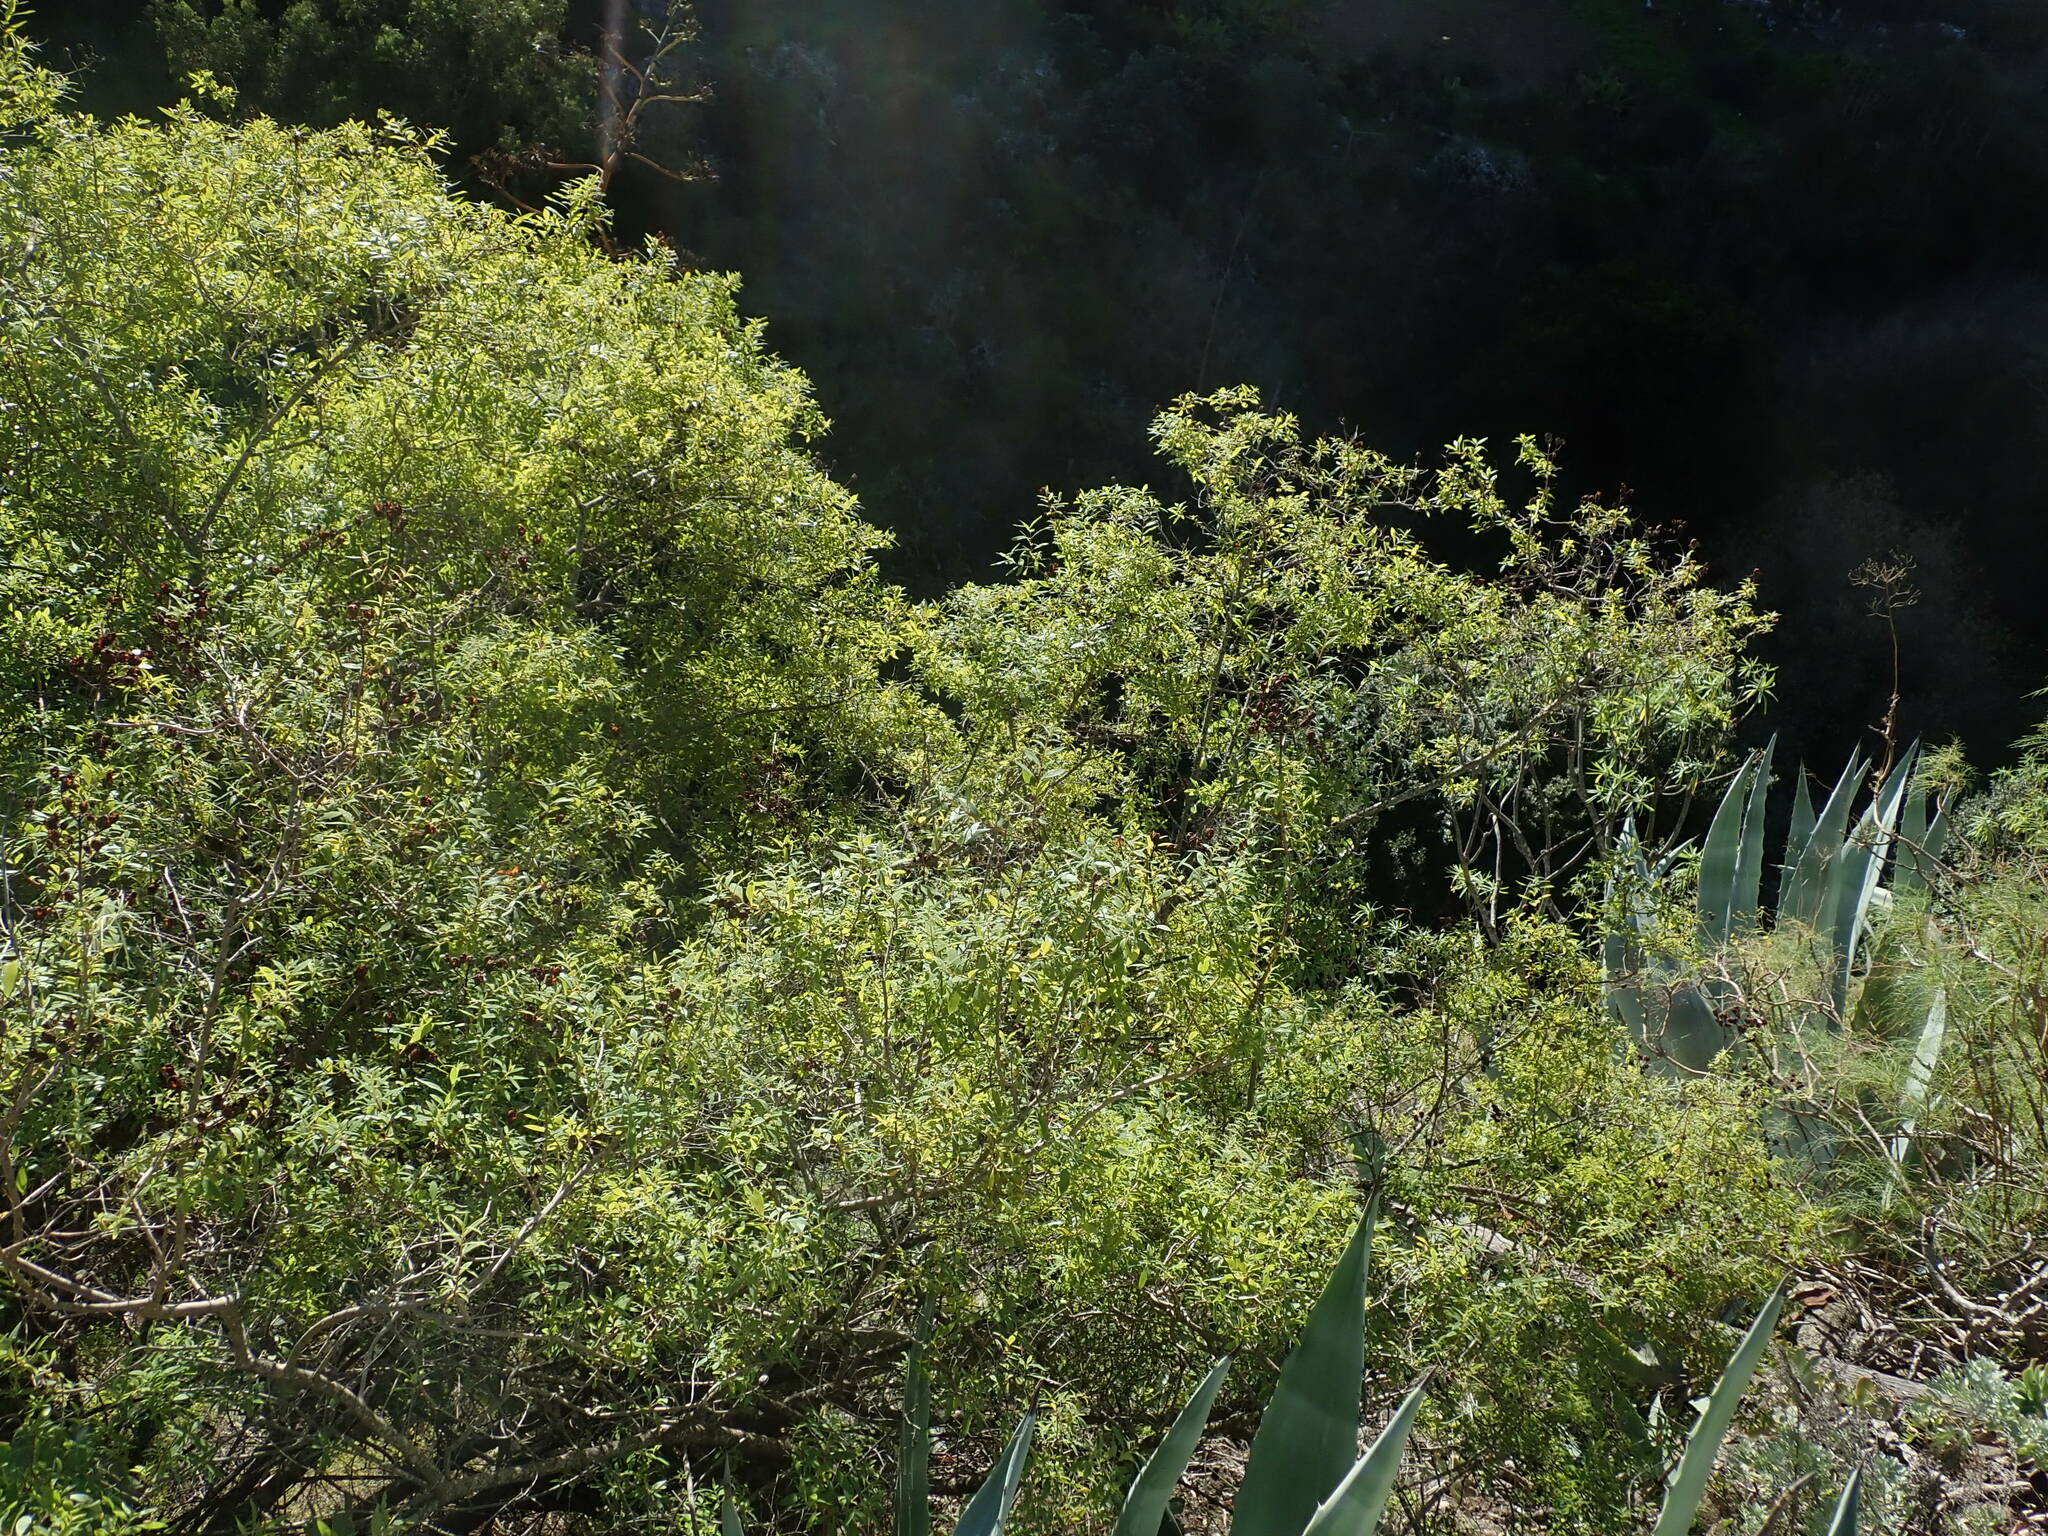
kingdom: Plantae
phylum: Tracheophyta
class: Magnoliopsida
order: Malpighiales
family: Hypericaceae
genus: Hypericum
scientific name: Hypericum canariense
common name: Canary island st. johnswort
